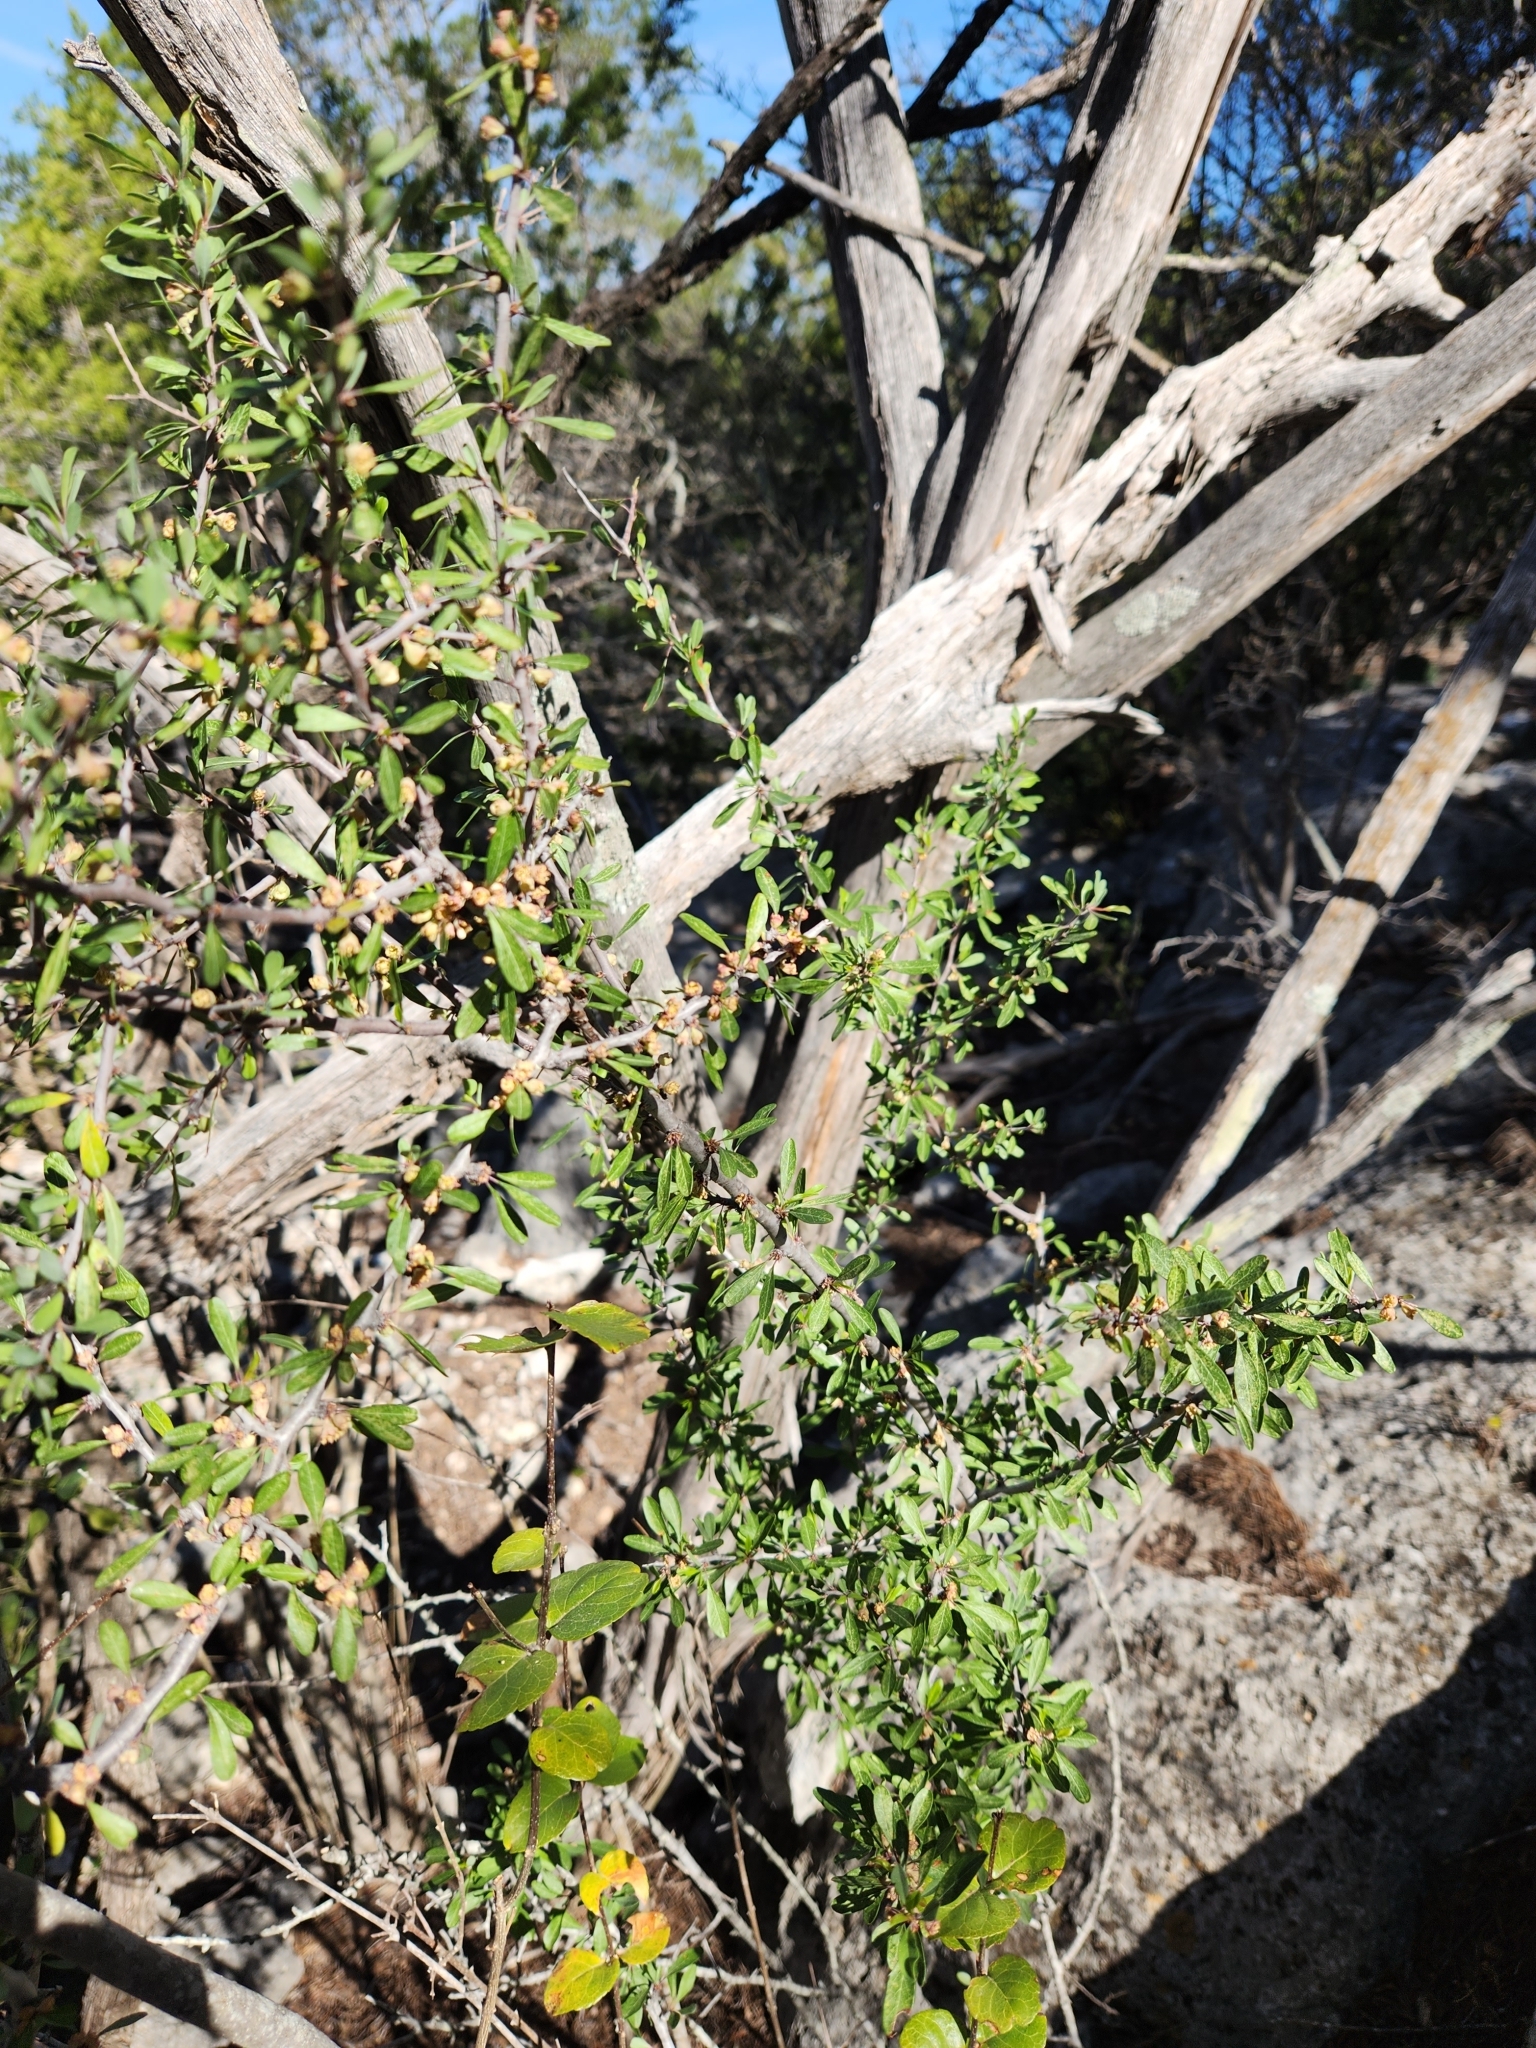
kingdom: Plantae
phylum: Tracheophyta
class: Magnoliopsida
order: Ericales
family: Sapotaceae
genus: Sideroxylon
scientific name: Sideroxylon lanuginosum
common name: Chittamwood
